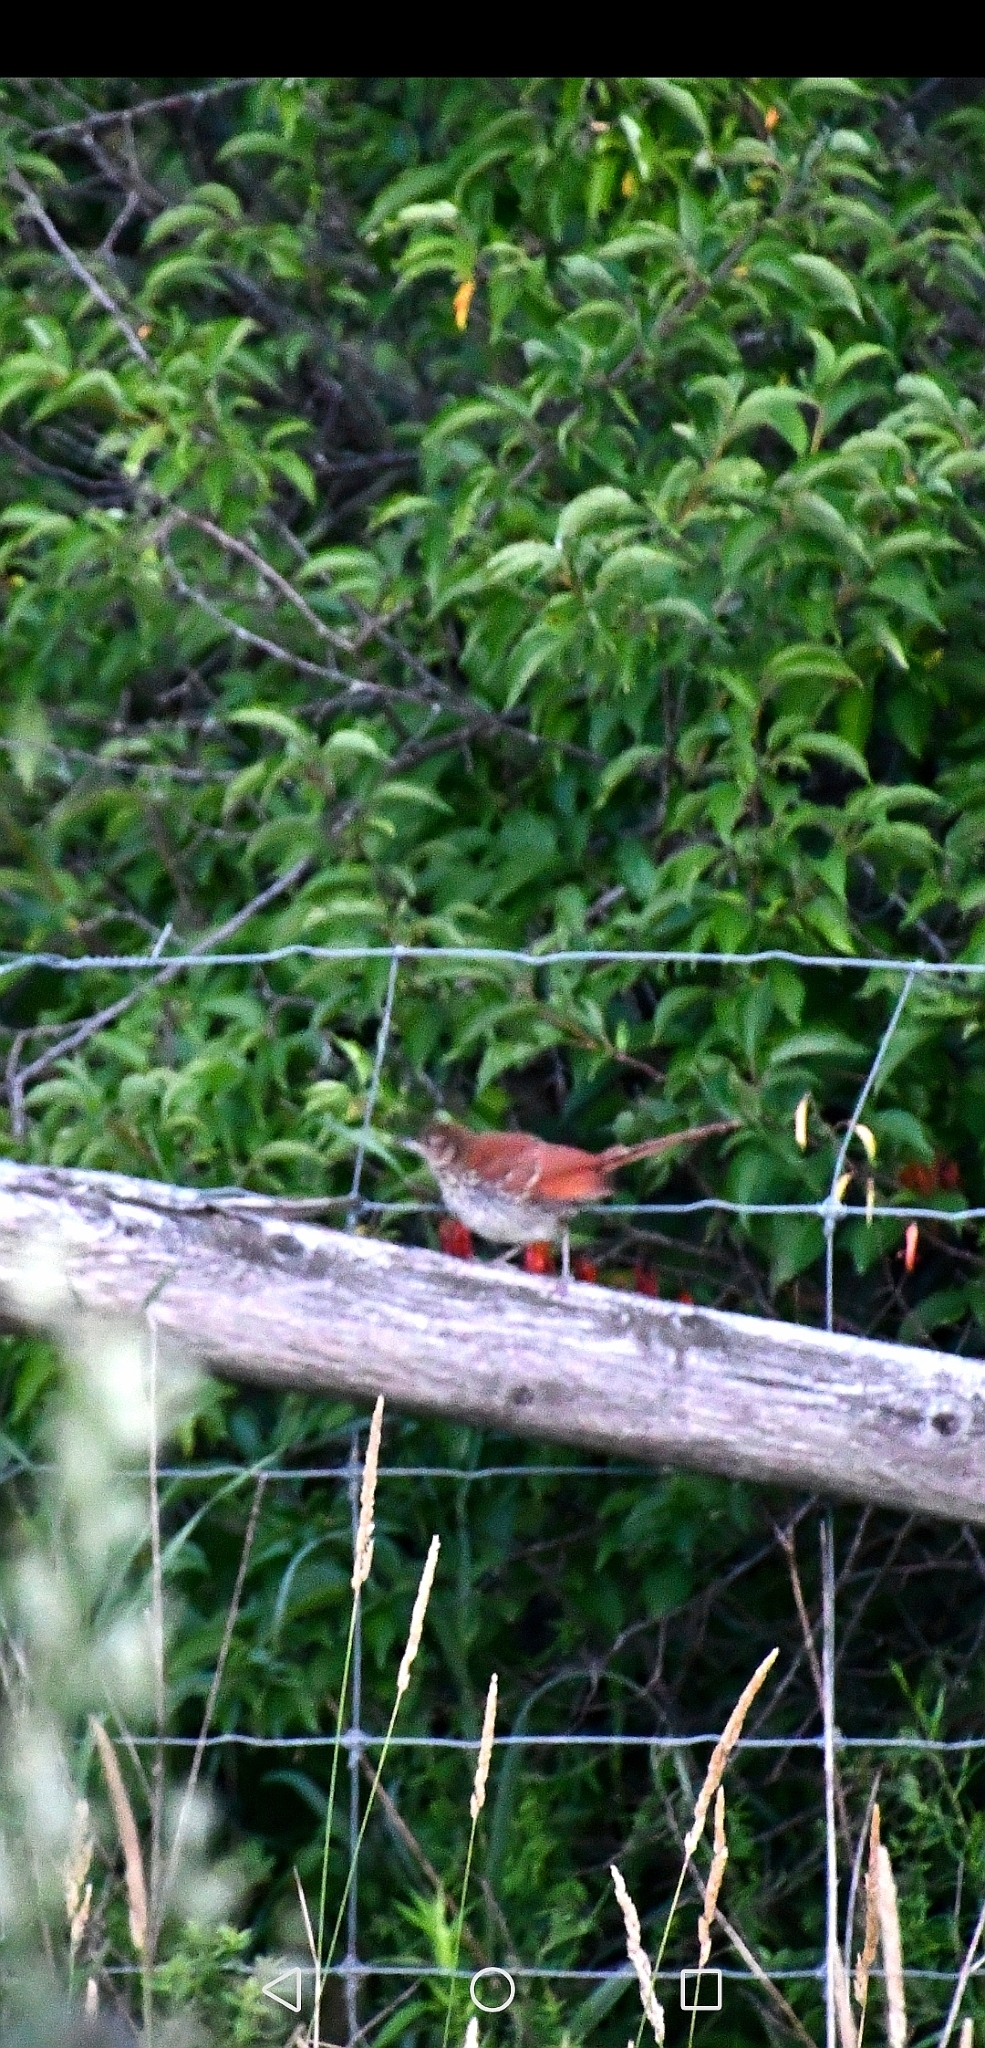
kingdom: Animalia
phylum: Chordata
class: Aves
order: Passeriformes
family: Mimidae
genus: Toxostoma
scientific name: Toxostoma rufum
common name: Brown thrasher
